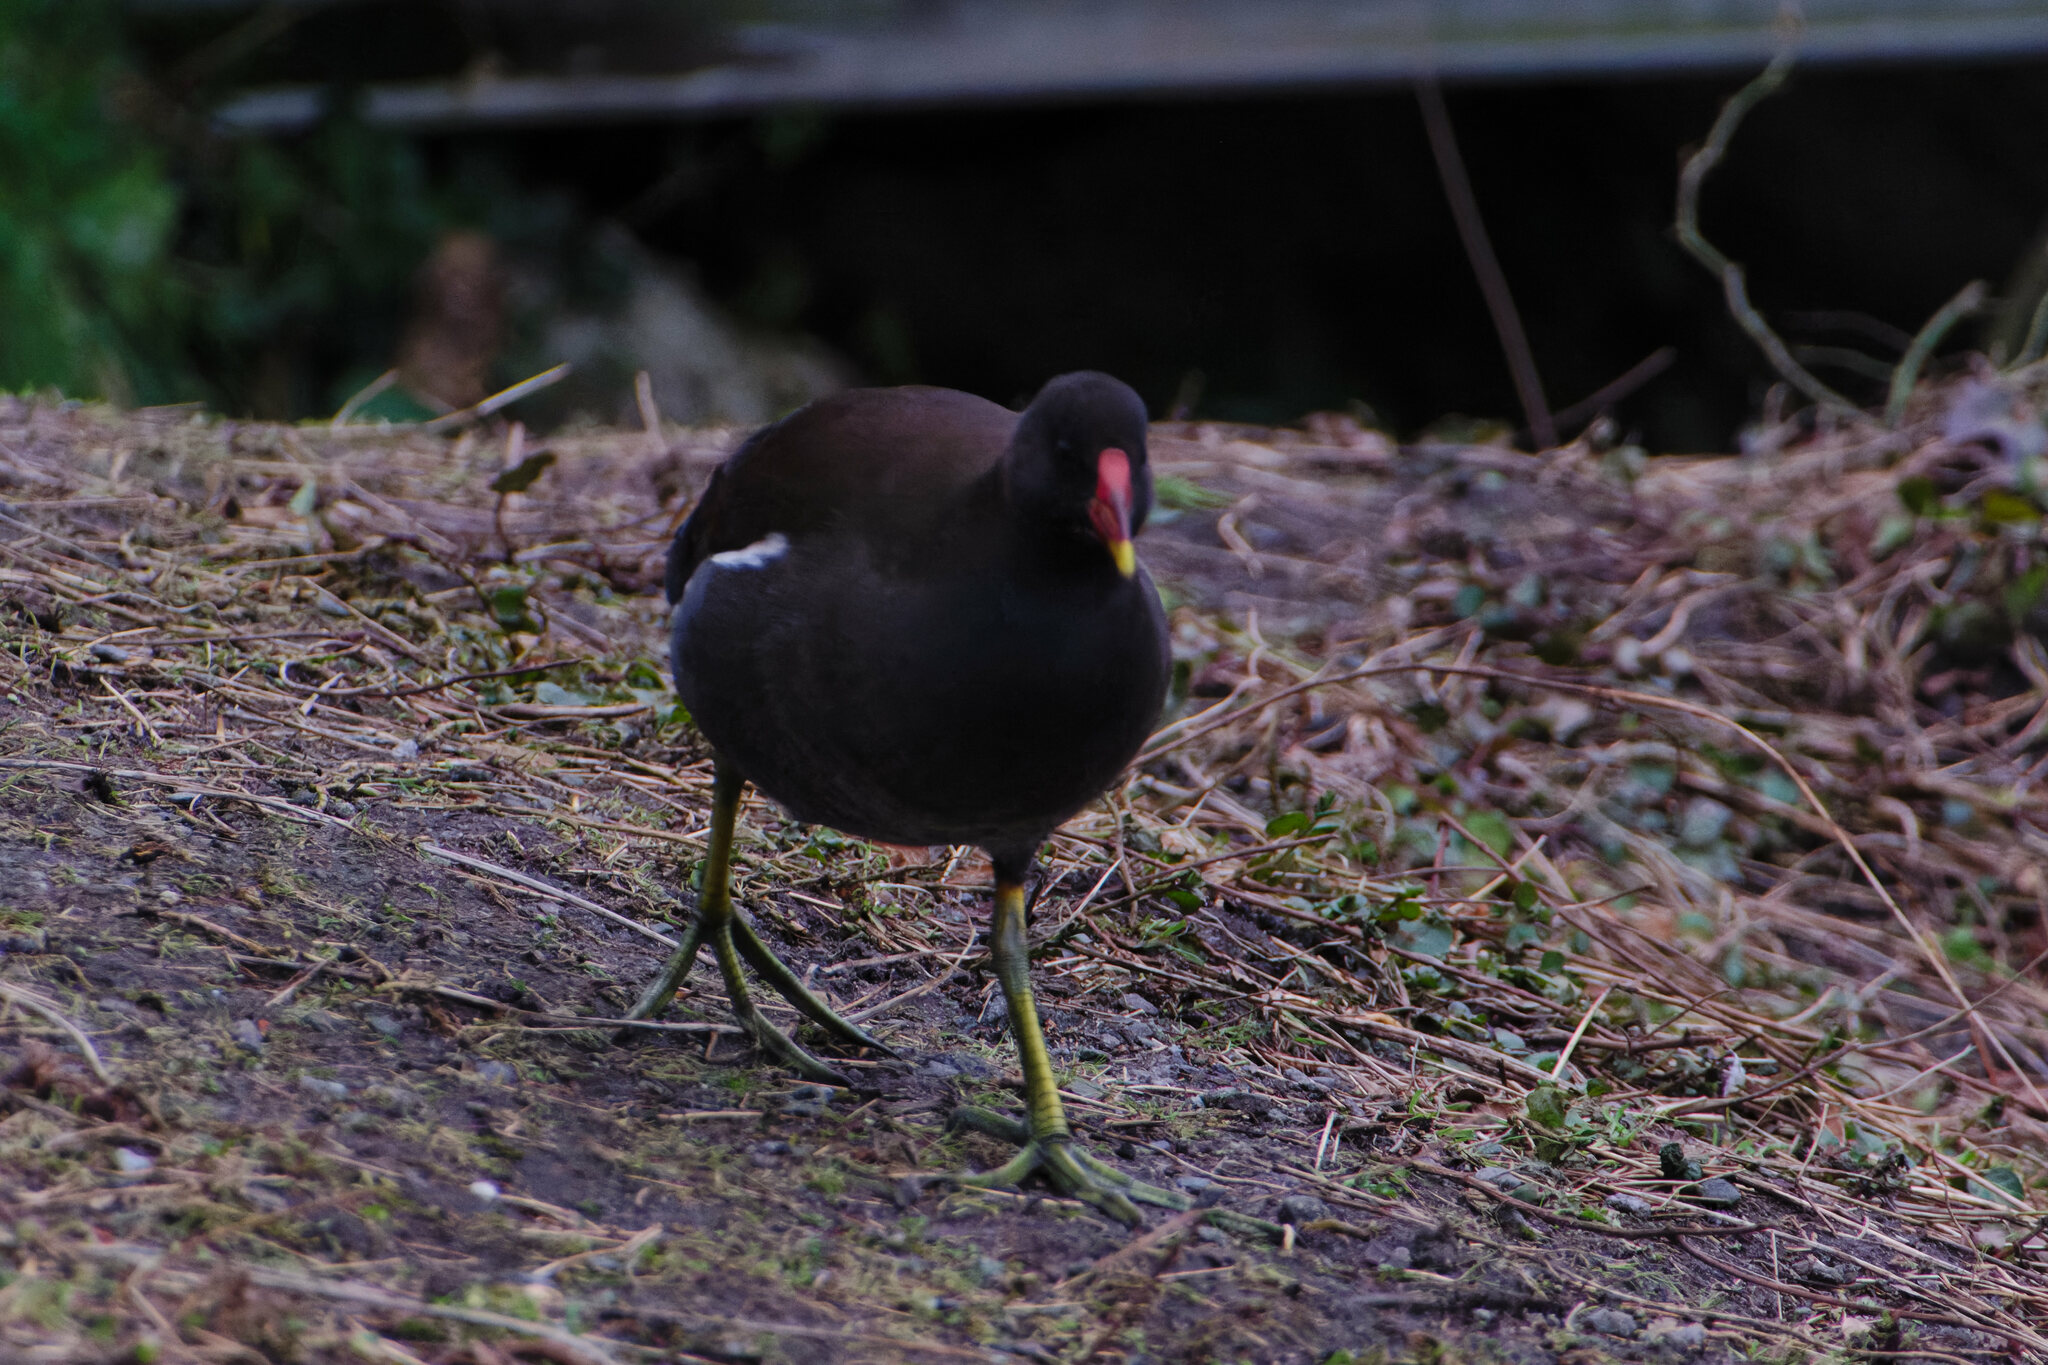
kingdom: Animalia
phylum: Chordata
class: Aves
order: Gruiformes
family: Rallidae
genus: Gallinula
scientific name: Gallinula chloropus
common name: Common moorhen
